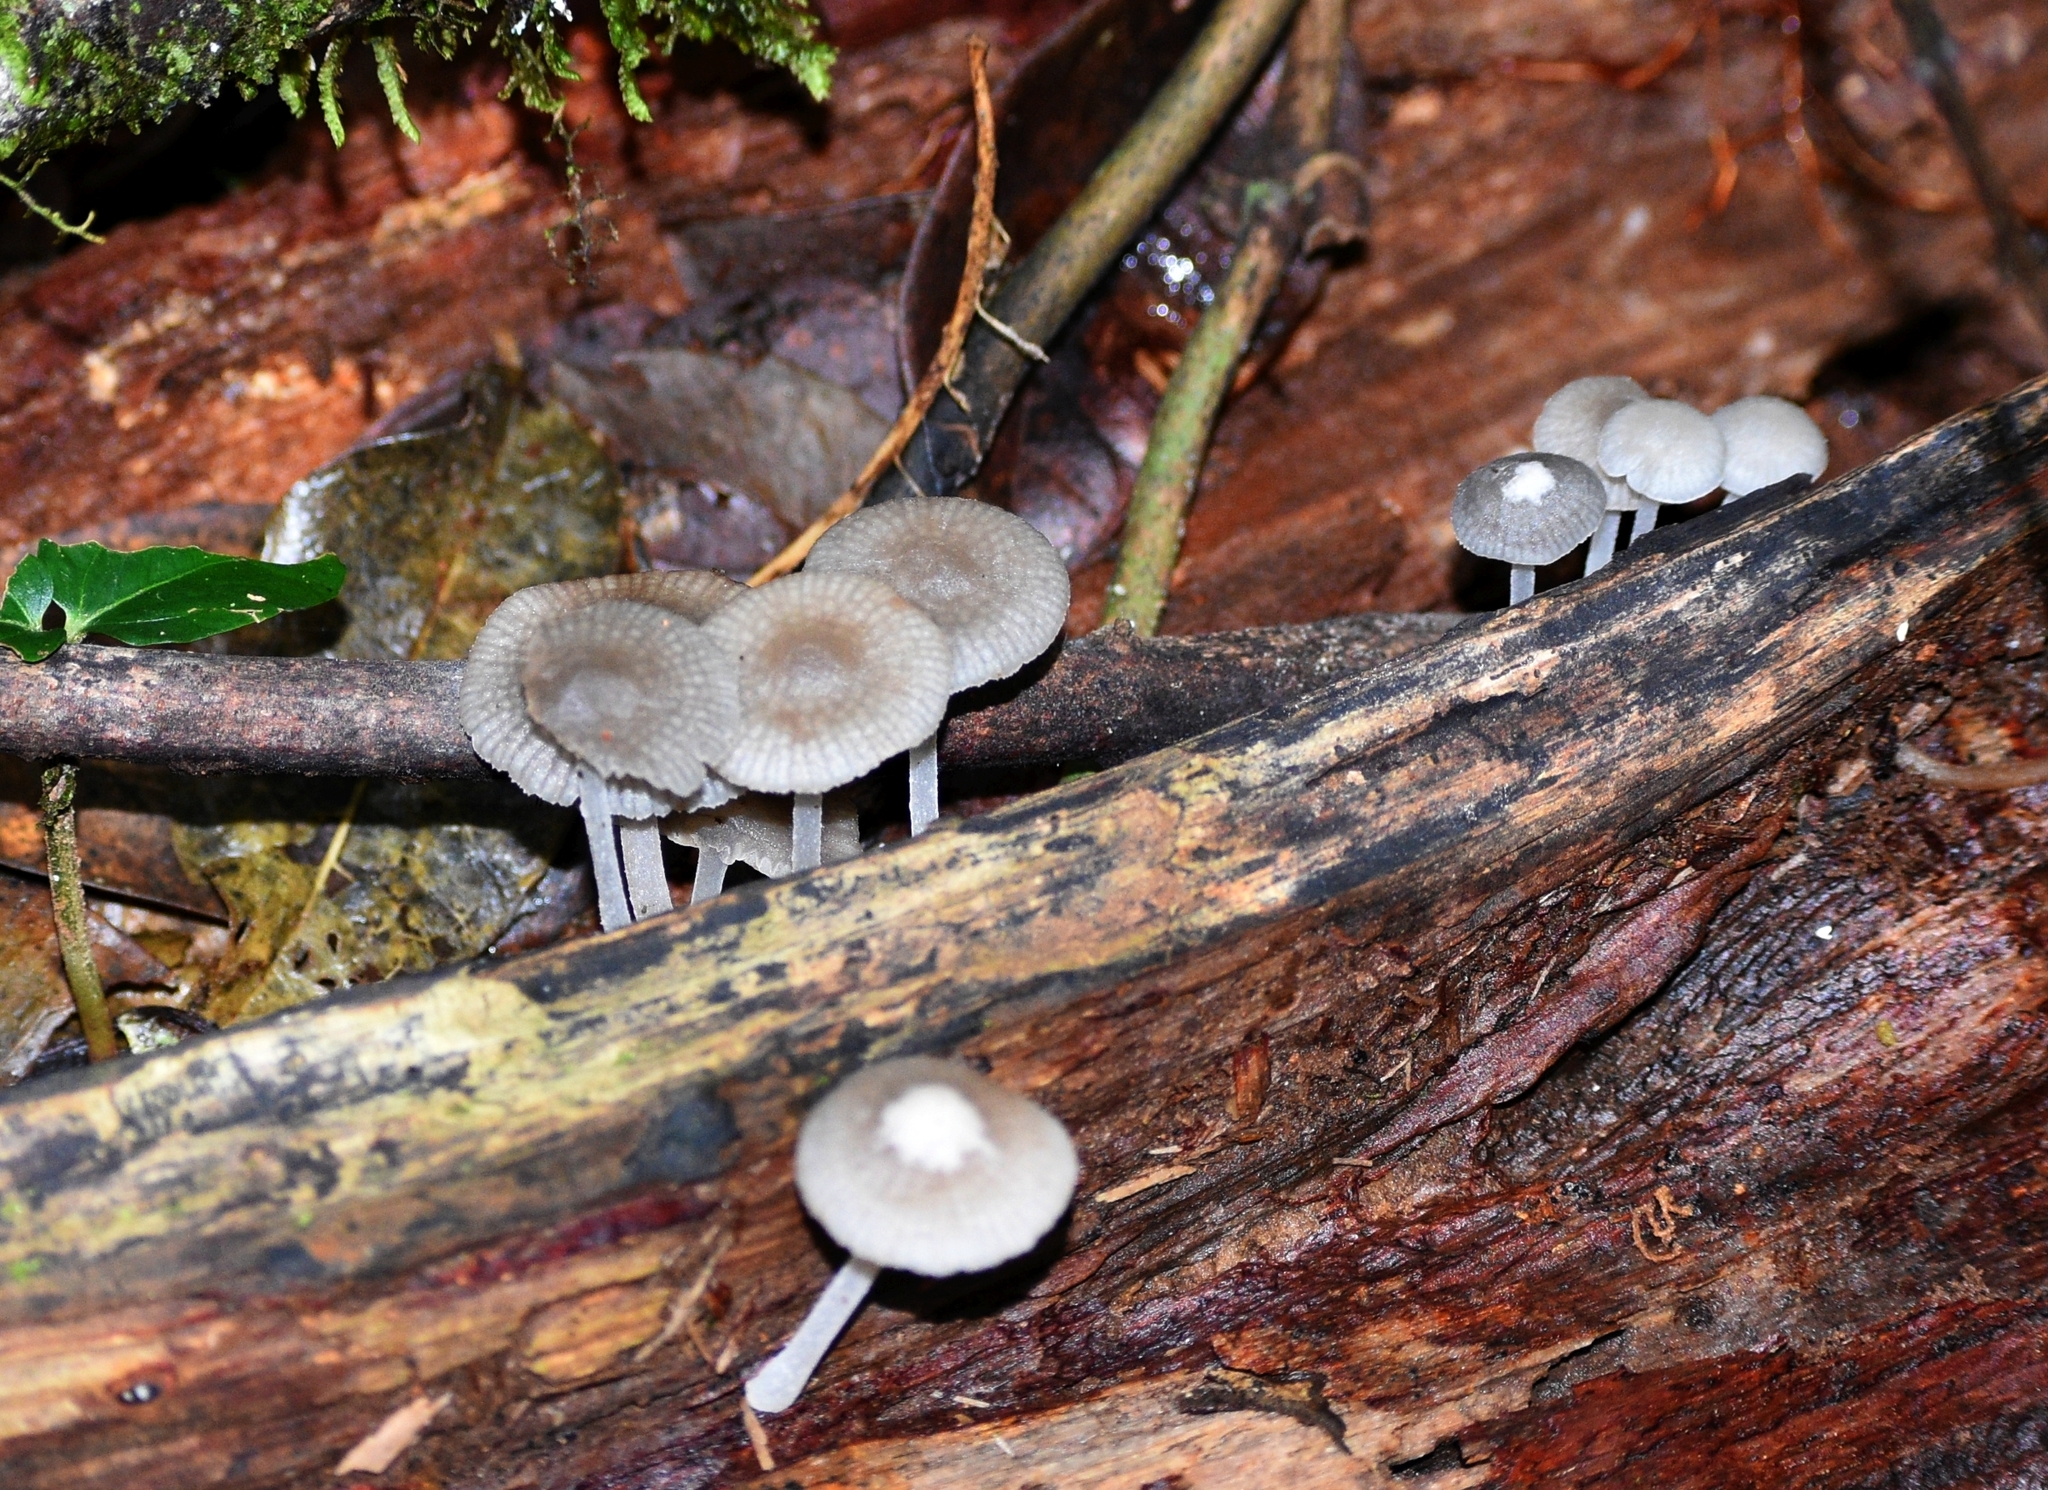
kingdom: Fungi
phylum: Basidiomycota
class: Agaricomycetes
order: Agaricales
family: Mycenaceae
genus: Filoboletus
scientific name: Filoboletus manipularis
